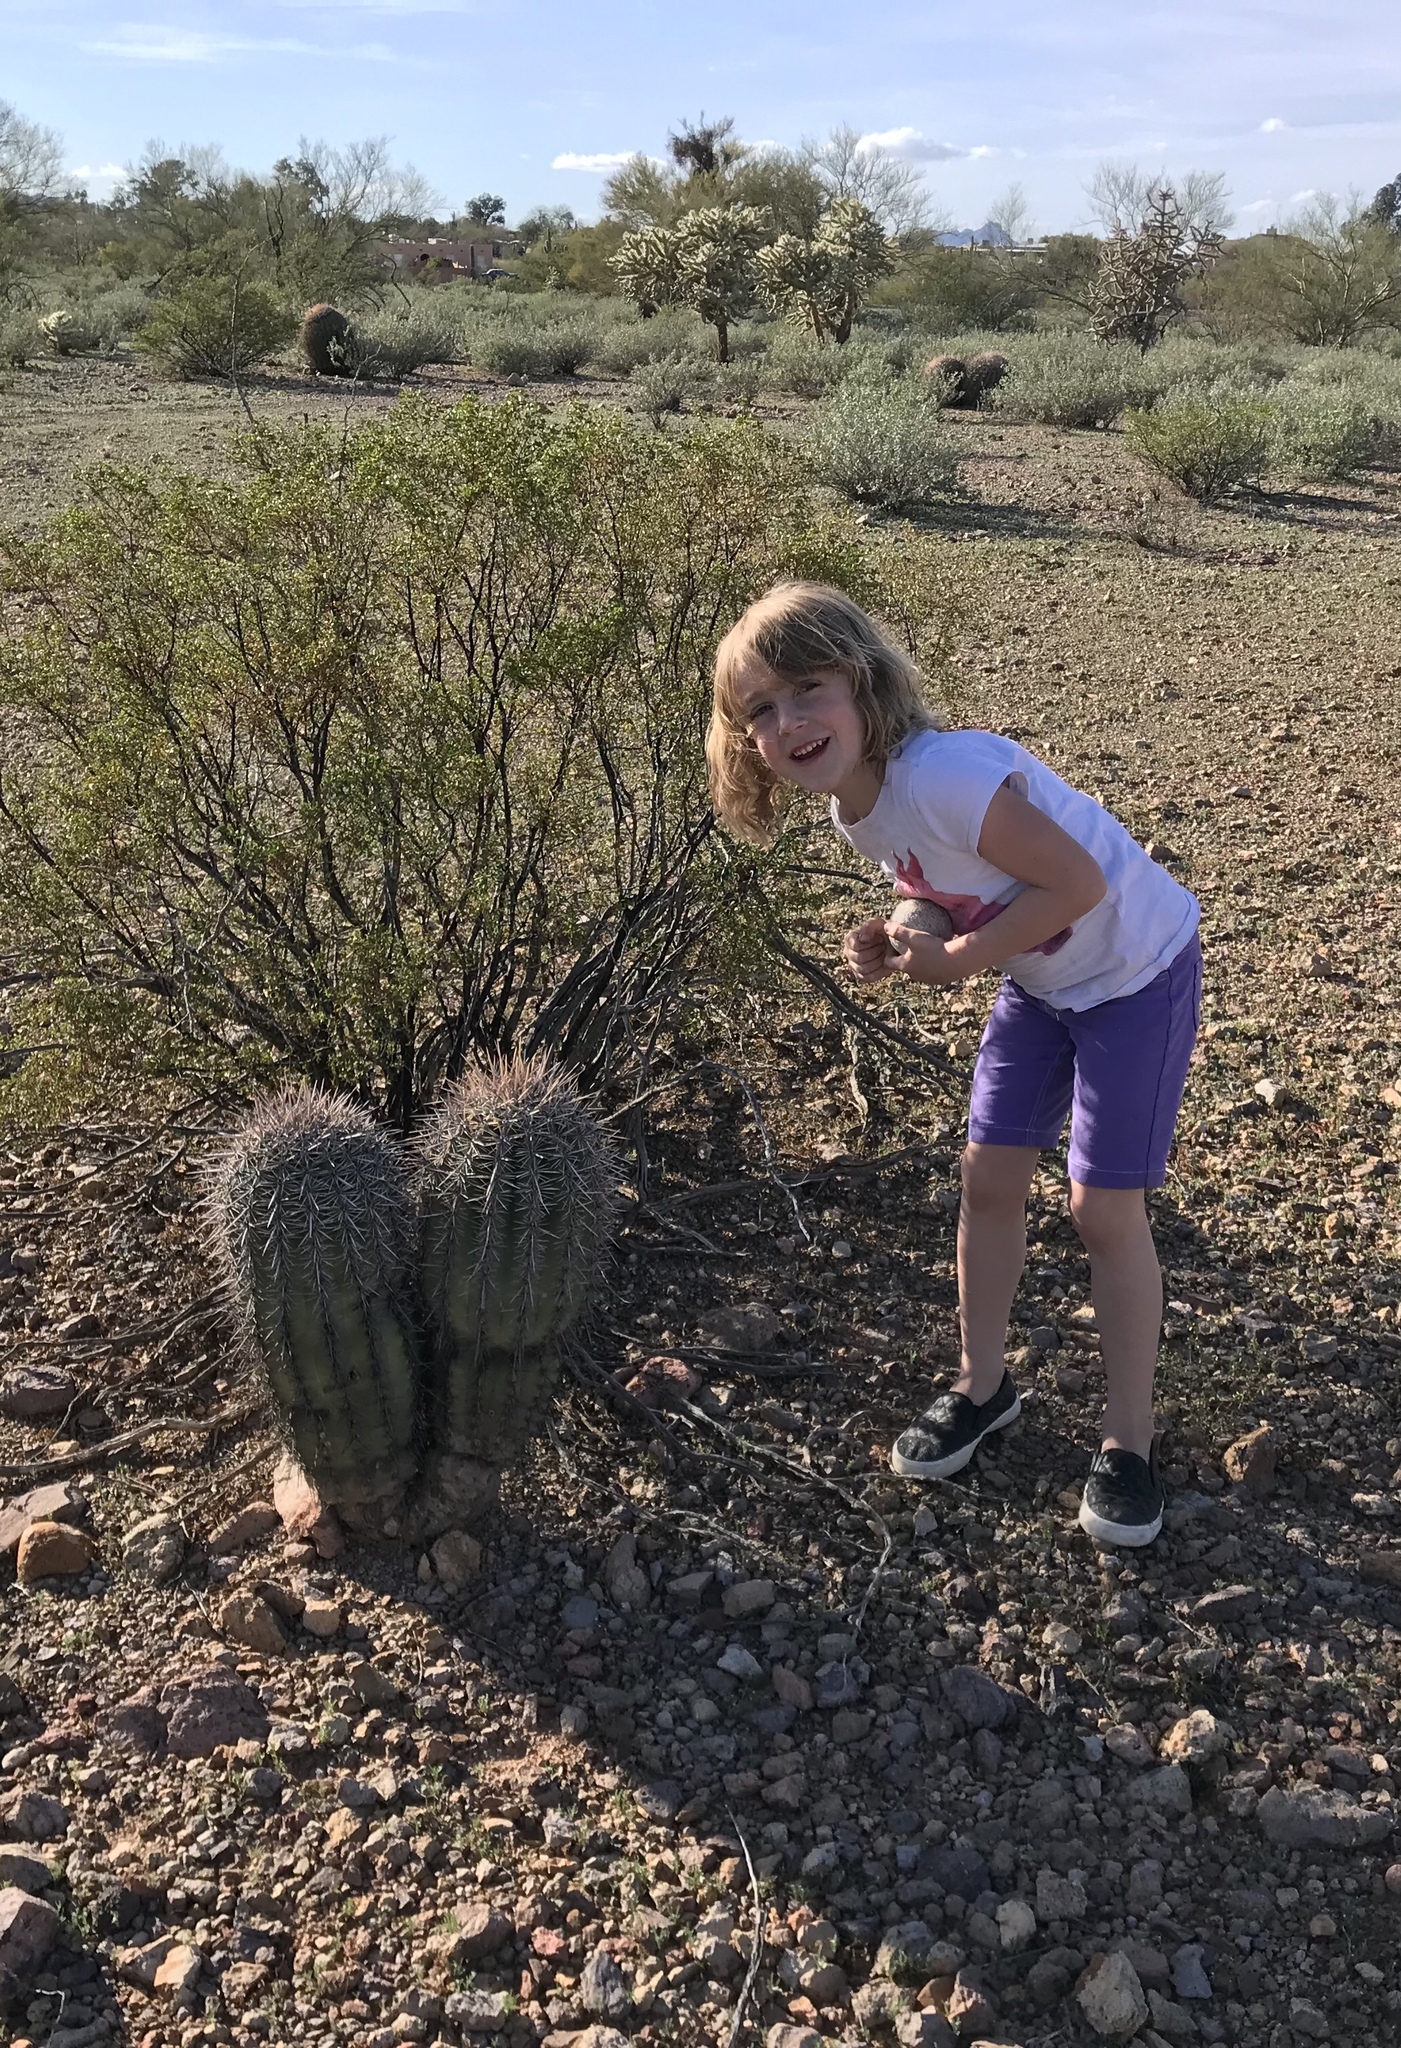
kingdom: Plantae
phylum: Tracheophyta
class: Magnoliopsida
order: Caryophyllales
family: Cactaceae
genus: Carnegiea
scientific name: Carnegiea gigantea
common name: Saguaro
